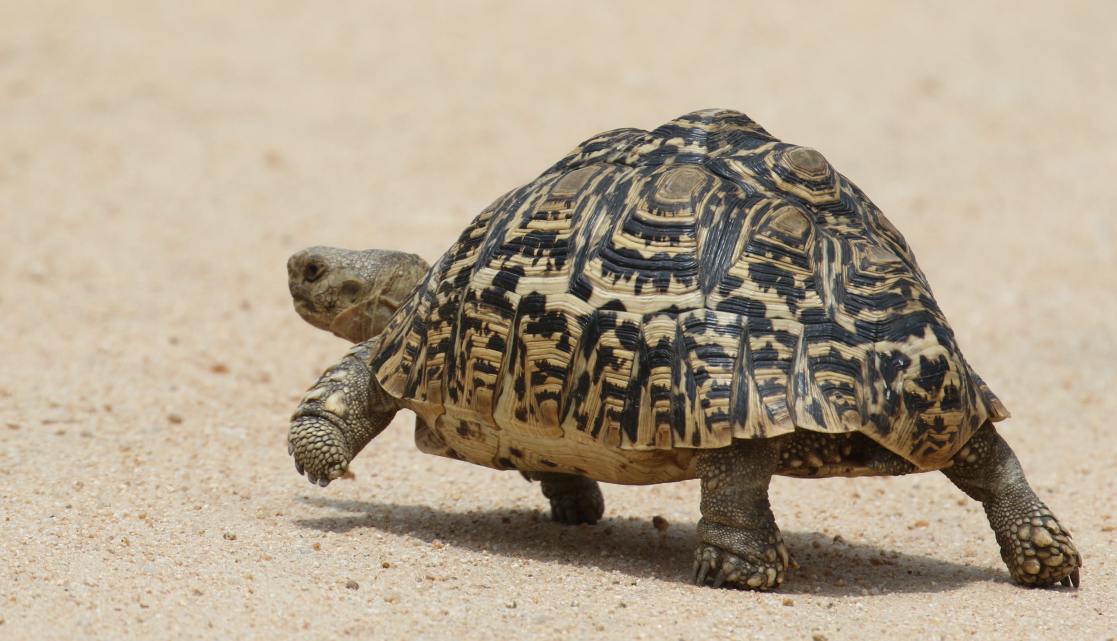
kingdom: Animalia
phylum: Chordata
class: Testudines
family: Testudinidae
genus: Stigmochelys
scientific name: Stigmochelys pardalis
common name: Leopard tortoise
